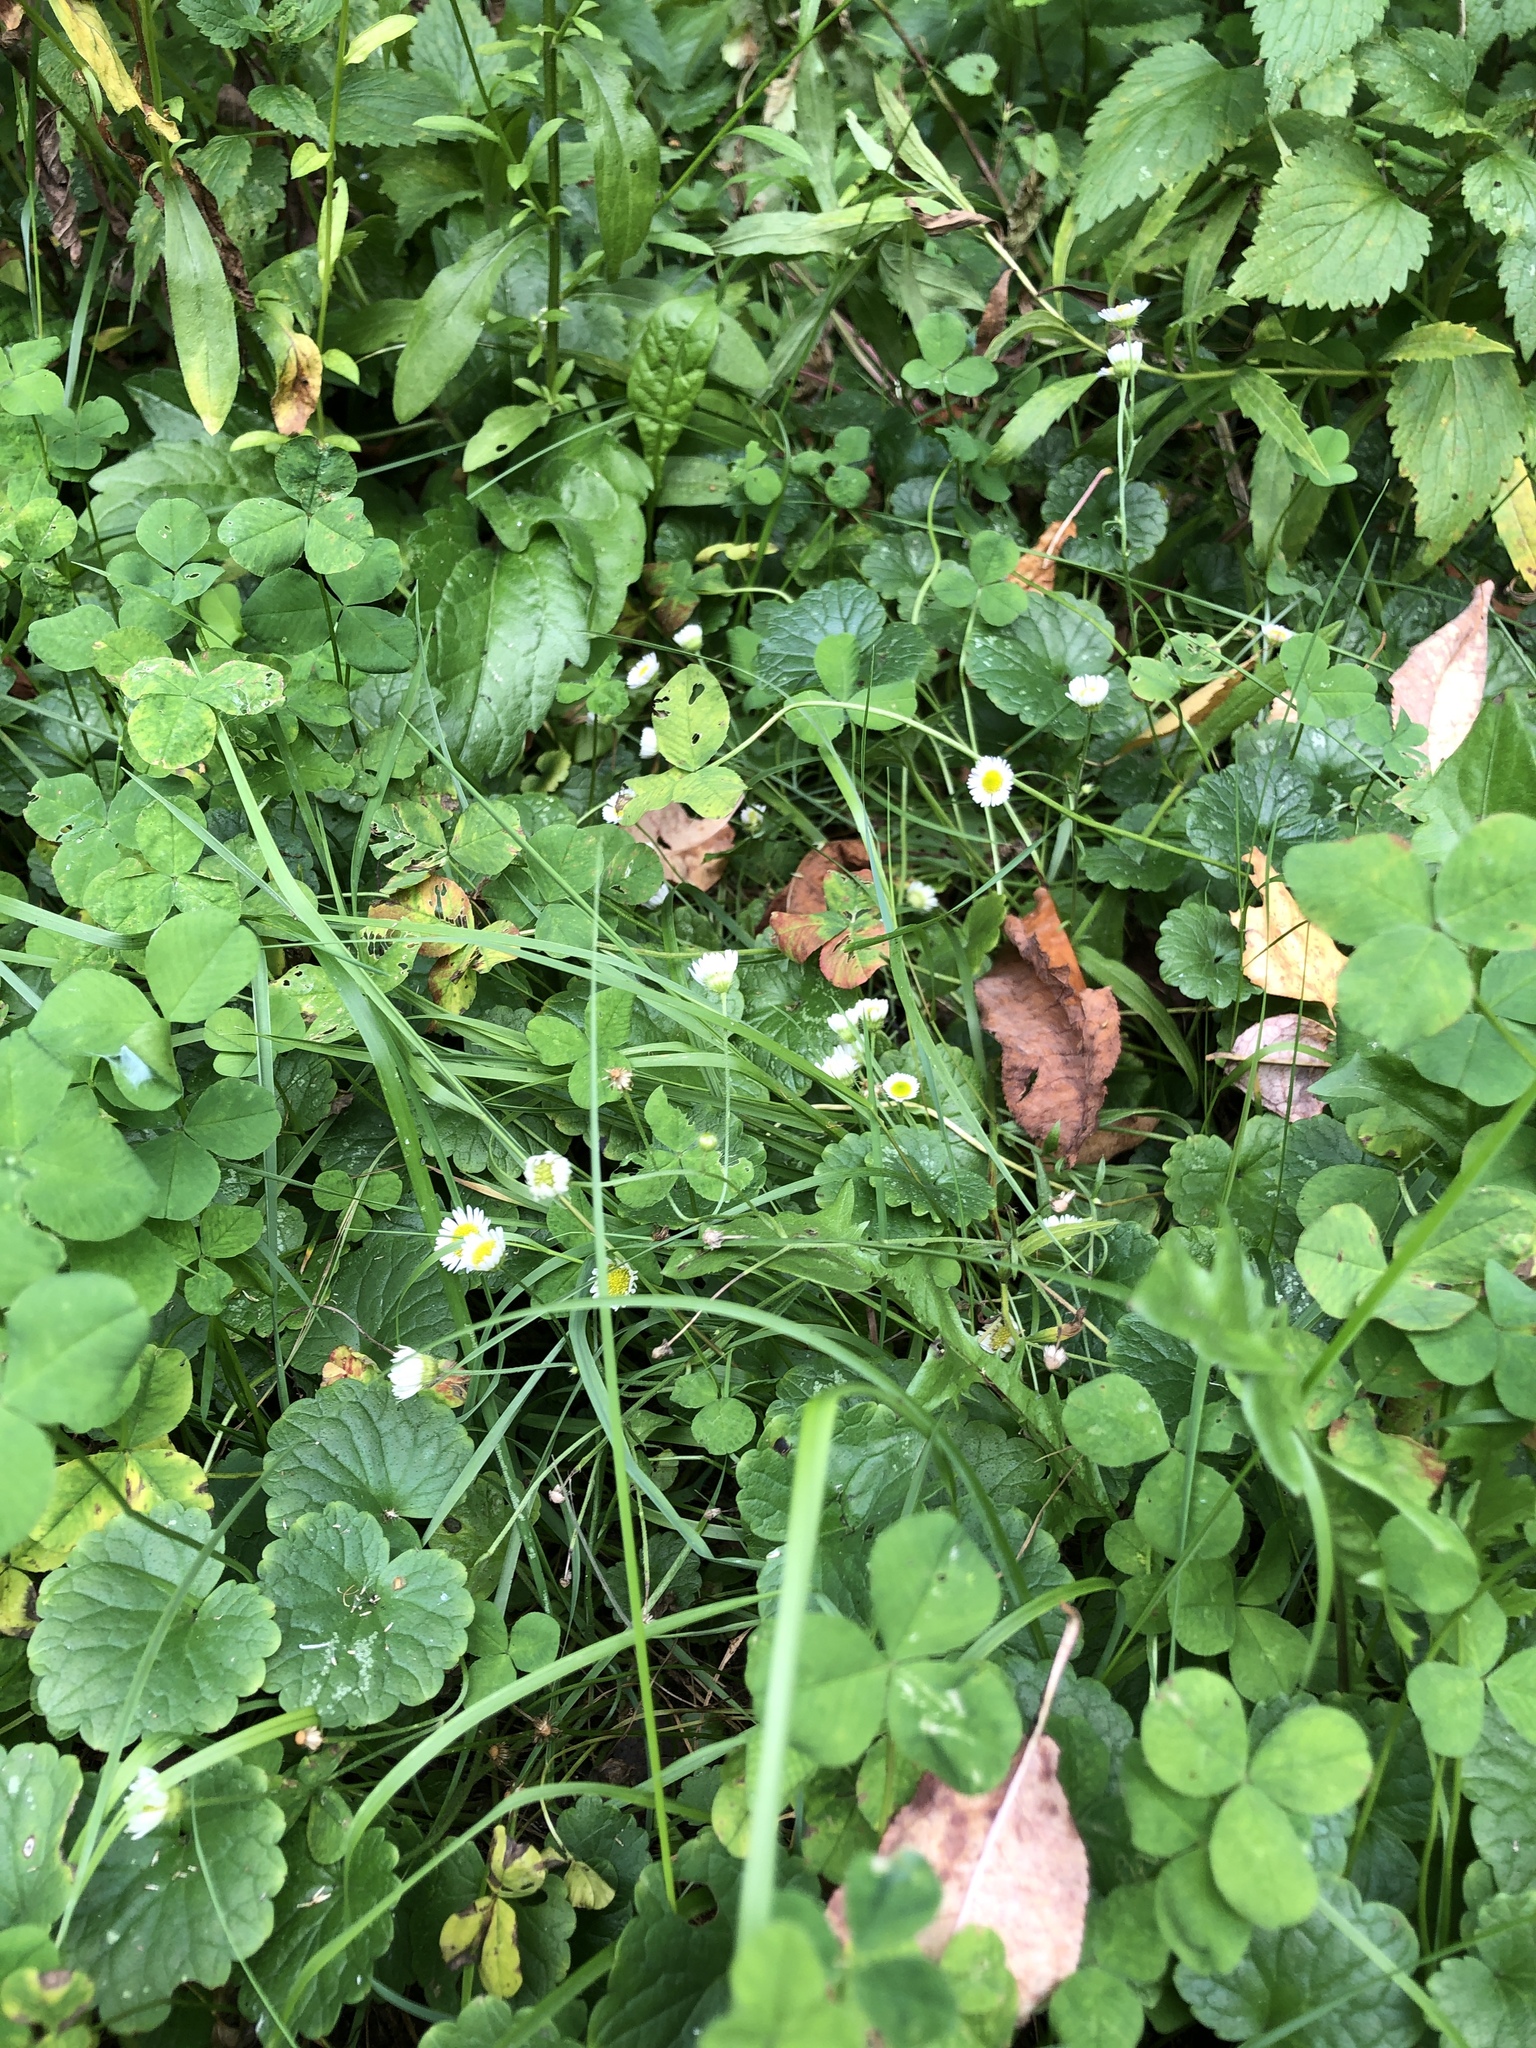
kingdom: Plantae
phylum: Tracheophyta
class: Magnoliopsida
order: Asterales
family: Asteraceae
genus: Erigeron
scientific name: Erigeron annuus
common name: Tall fleabane
